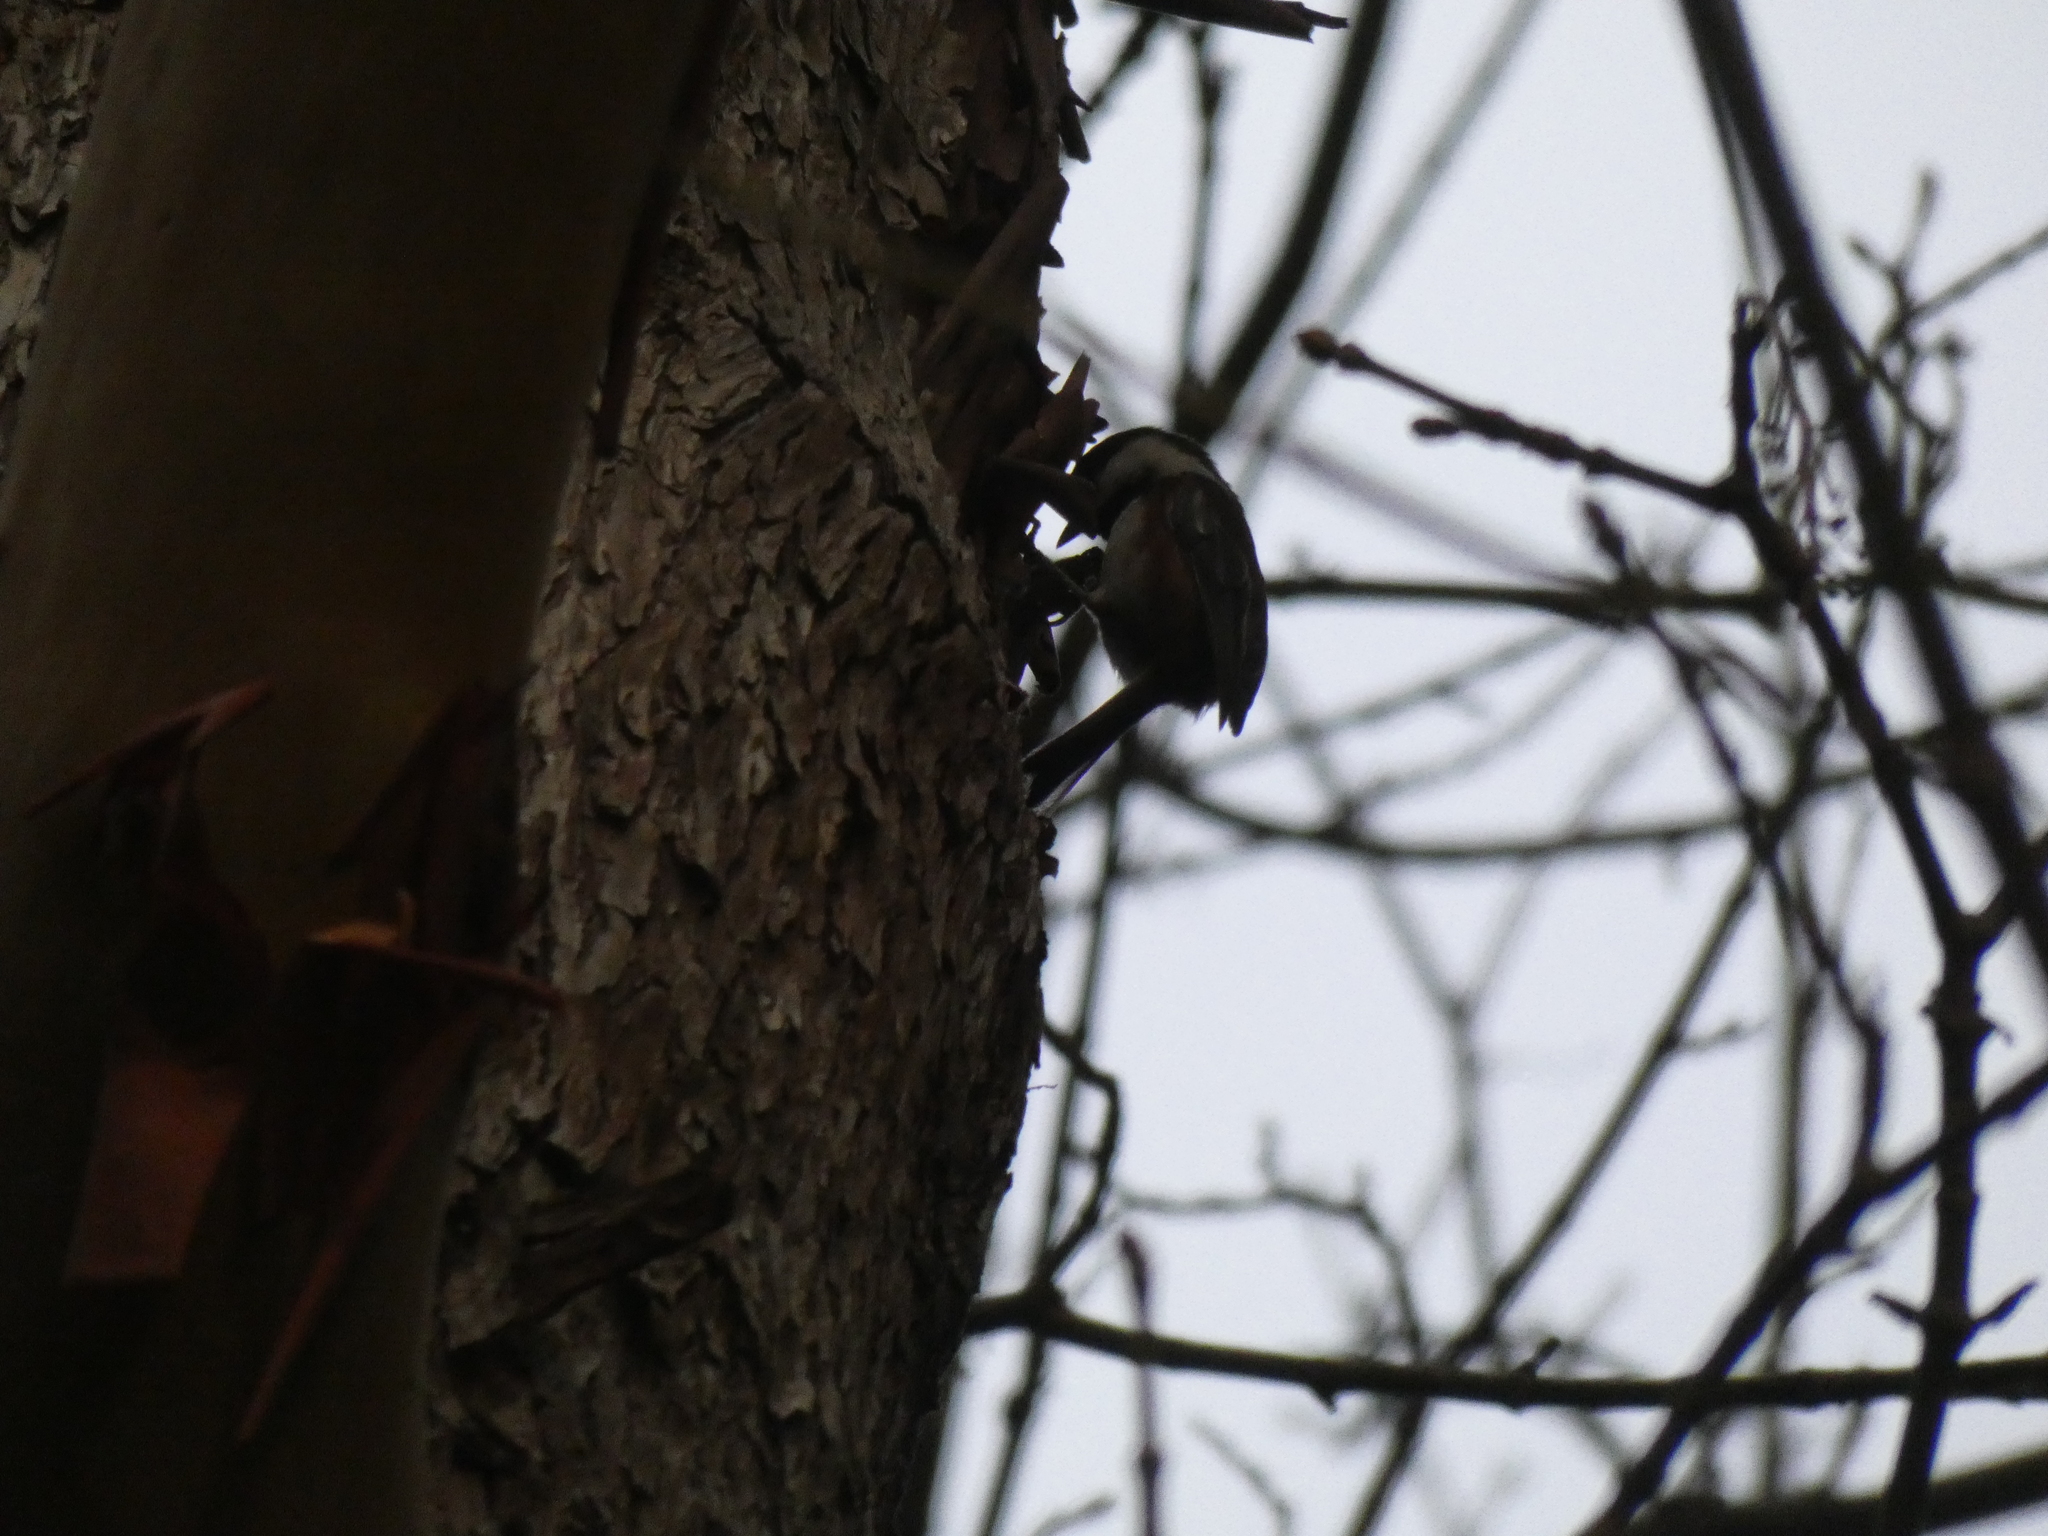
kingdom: Animalia
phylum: Chordata
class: Aves
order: Passeriformes
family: Paridae
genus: Poecile
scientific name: Poecile rufescens
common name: Chestnut-backed chickadee
